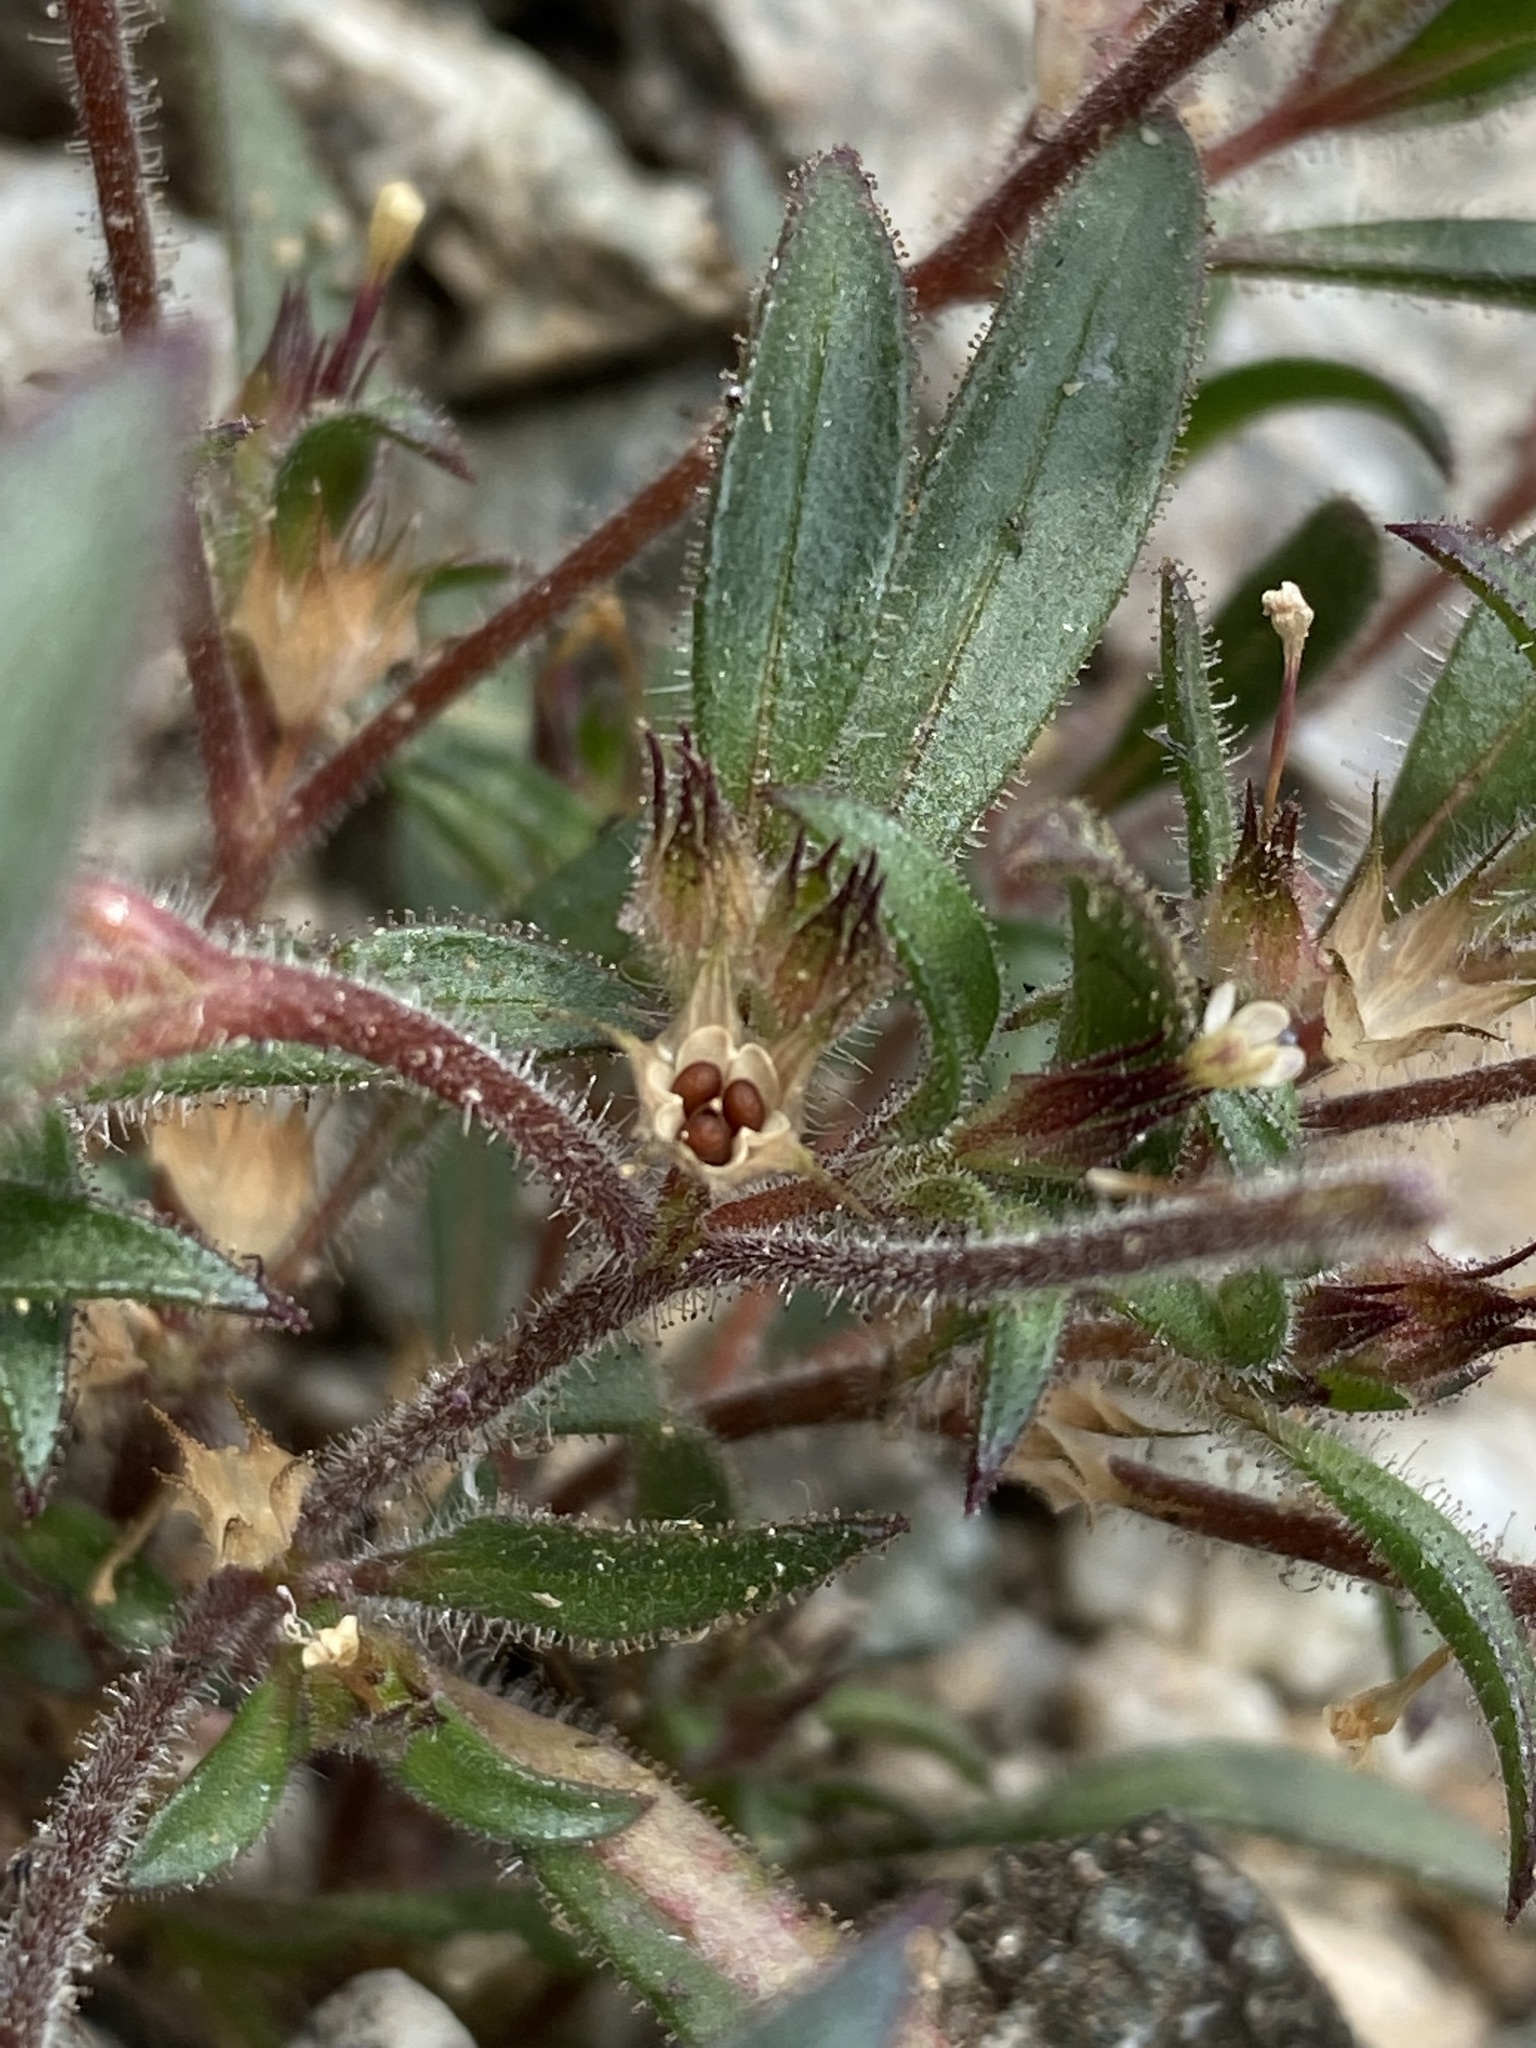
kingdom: Plantae
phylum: Tracheophyta
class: Magnoliopsida
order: Ericales
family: Polemoniaceae
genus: Collomia
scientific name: Collomia tinctoria
